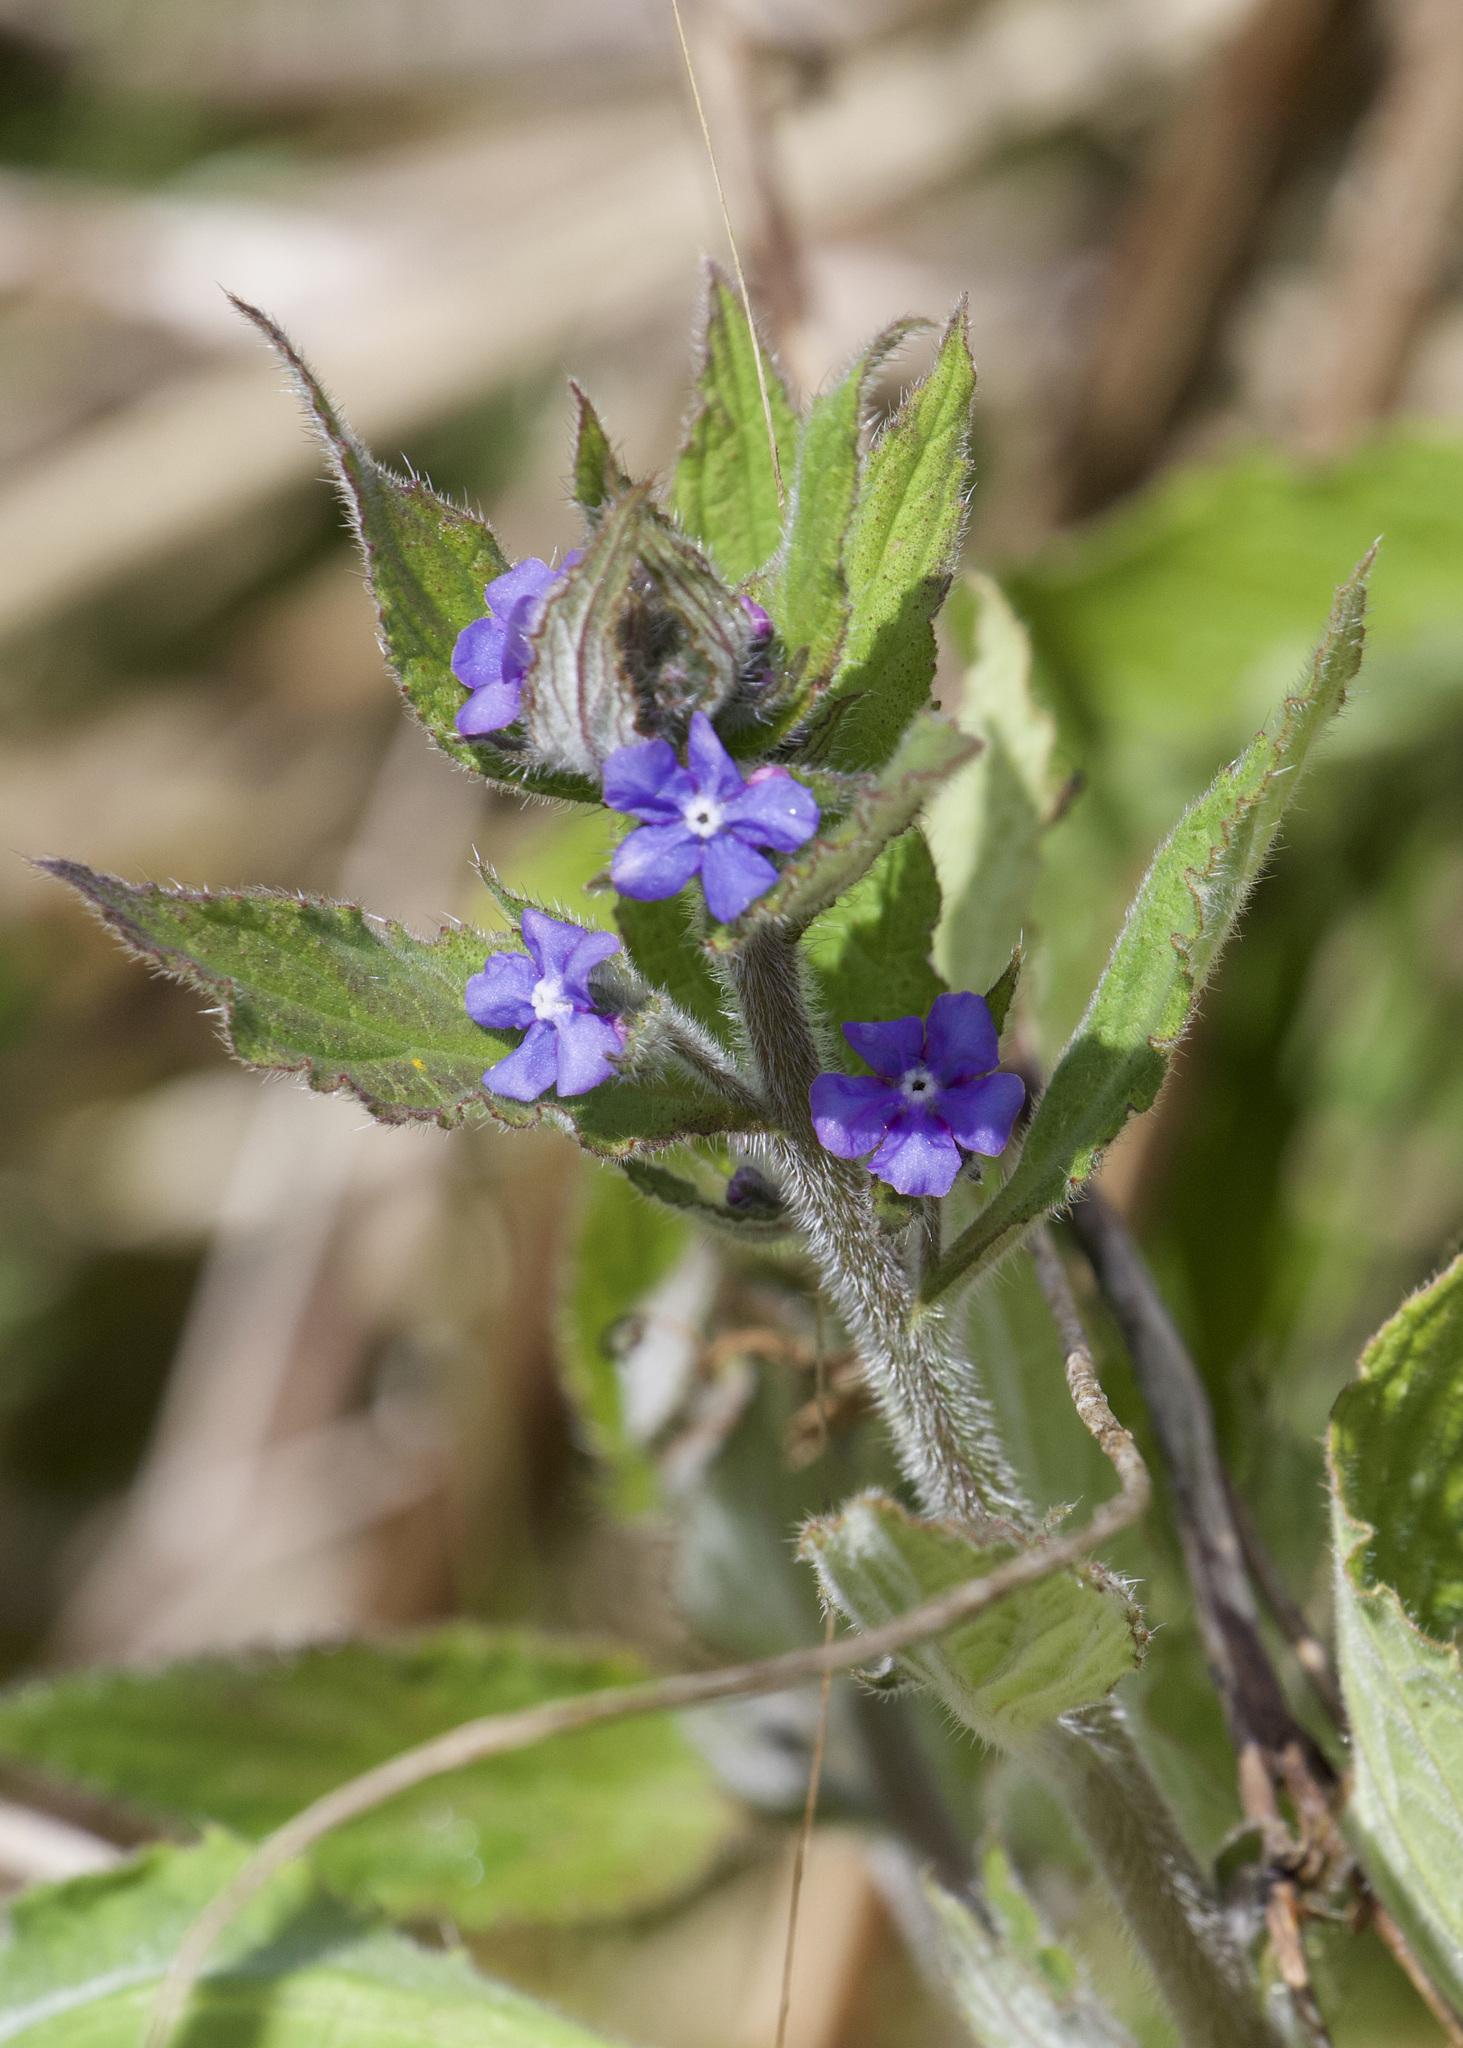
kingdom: Plantae
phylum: Tracheophyta
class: Magnoliopsida
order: Boraginales
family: Boraginaceae
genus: Pentaglottis
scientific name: Pentaglottis sempervirens
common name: Green alkanet
